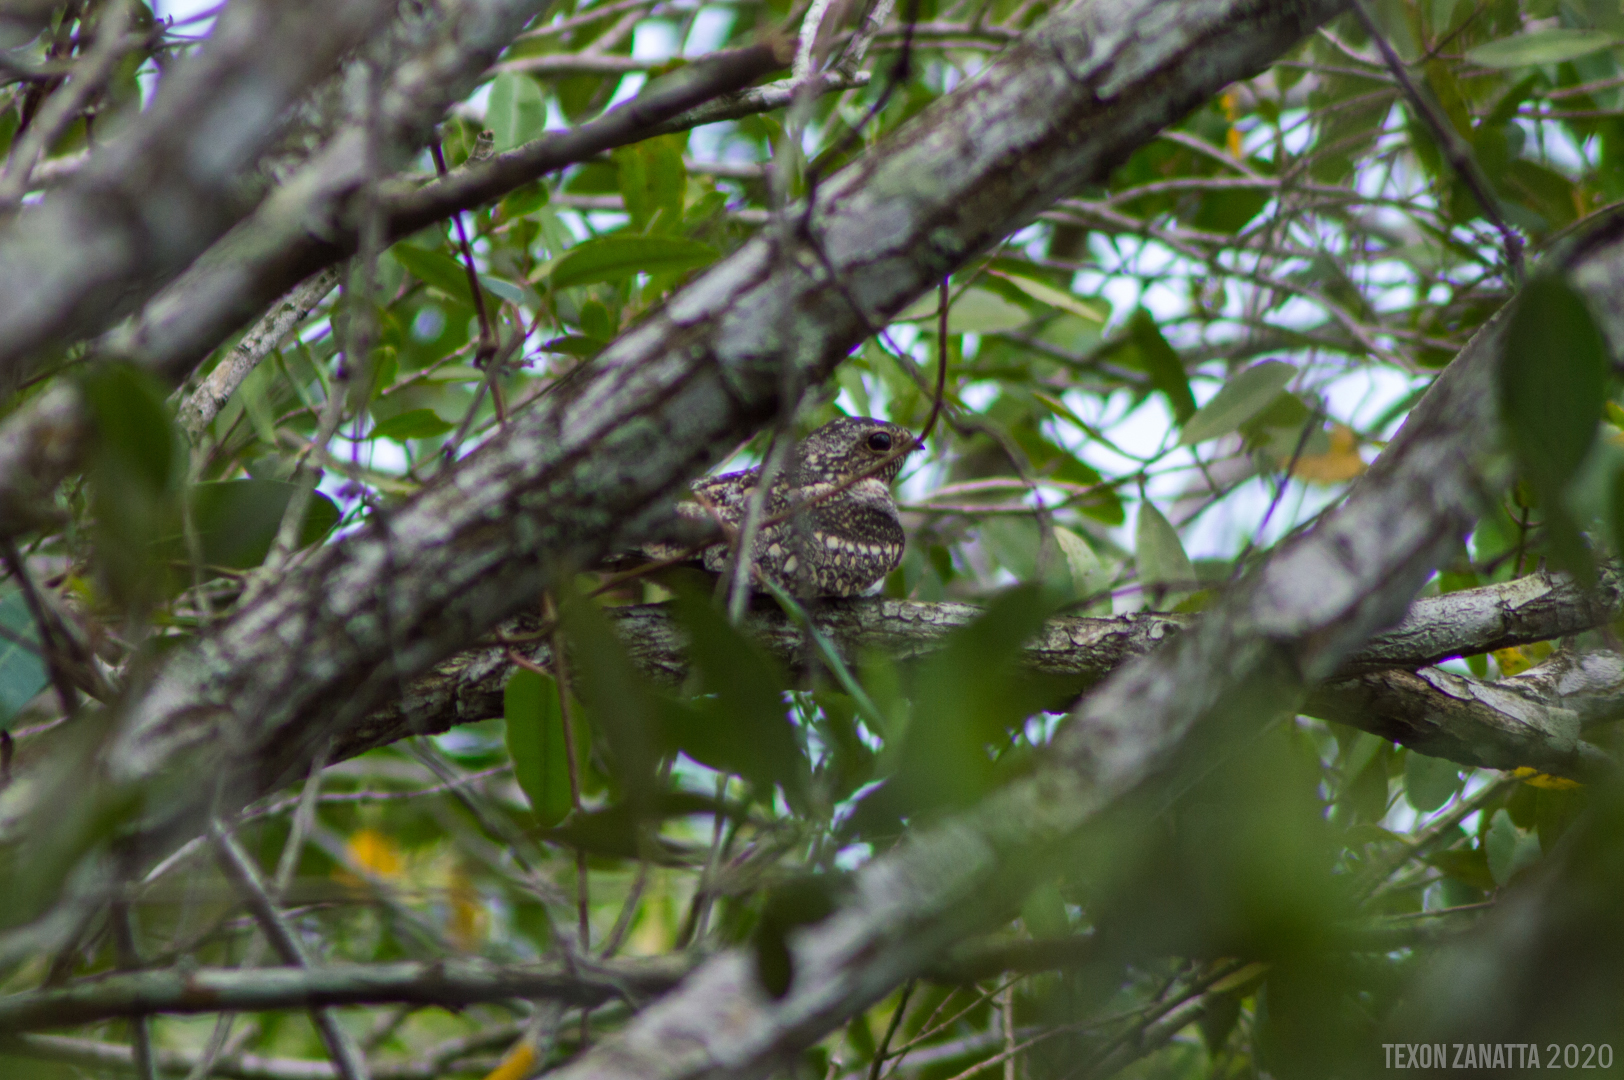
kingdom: Animalia
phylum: Chordata
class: Aves
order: Caprimulgiformes
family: Caprimulgidae
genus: Chordeiles
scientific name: Chordeiles acutipennis
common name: Lesser nighthawk
